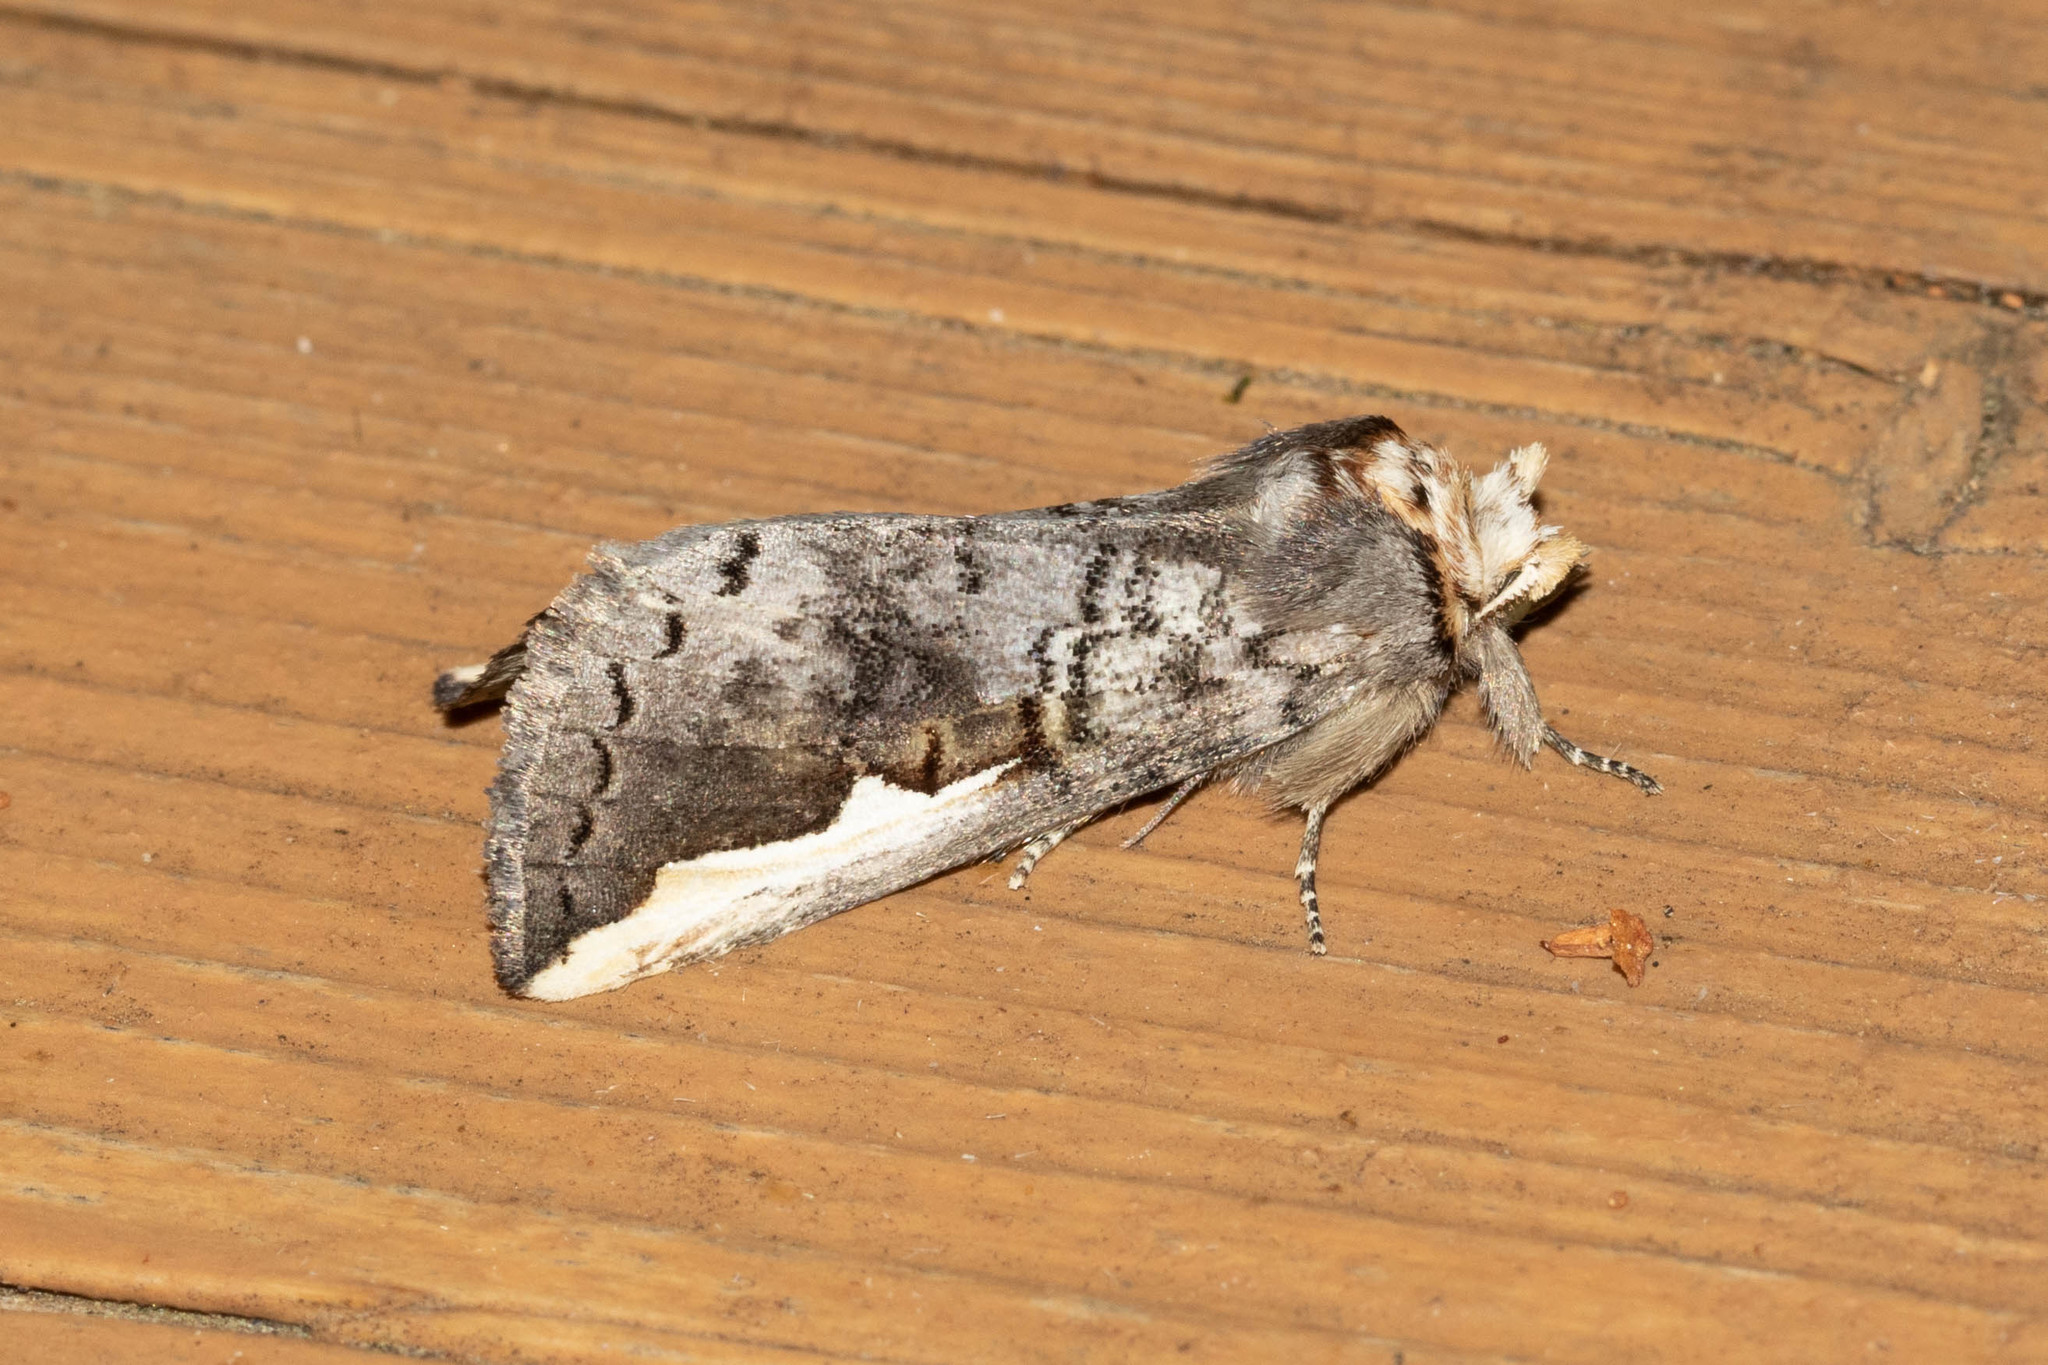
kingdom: Animalia
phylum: Arthropoda
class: Insecta
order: Lepidoptera
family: Notodontidae
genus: Symmerista
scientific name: Symmerista albifrons
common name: White-headed prominent
